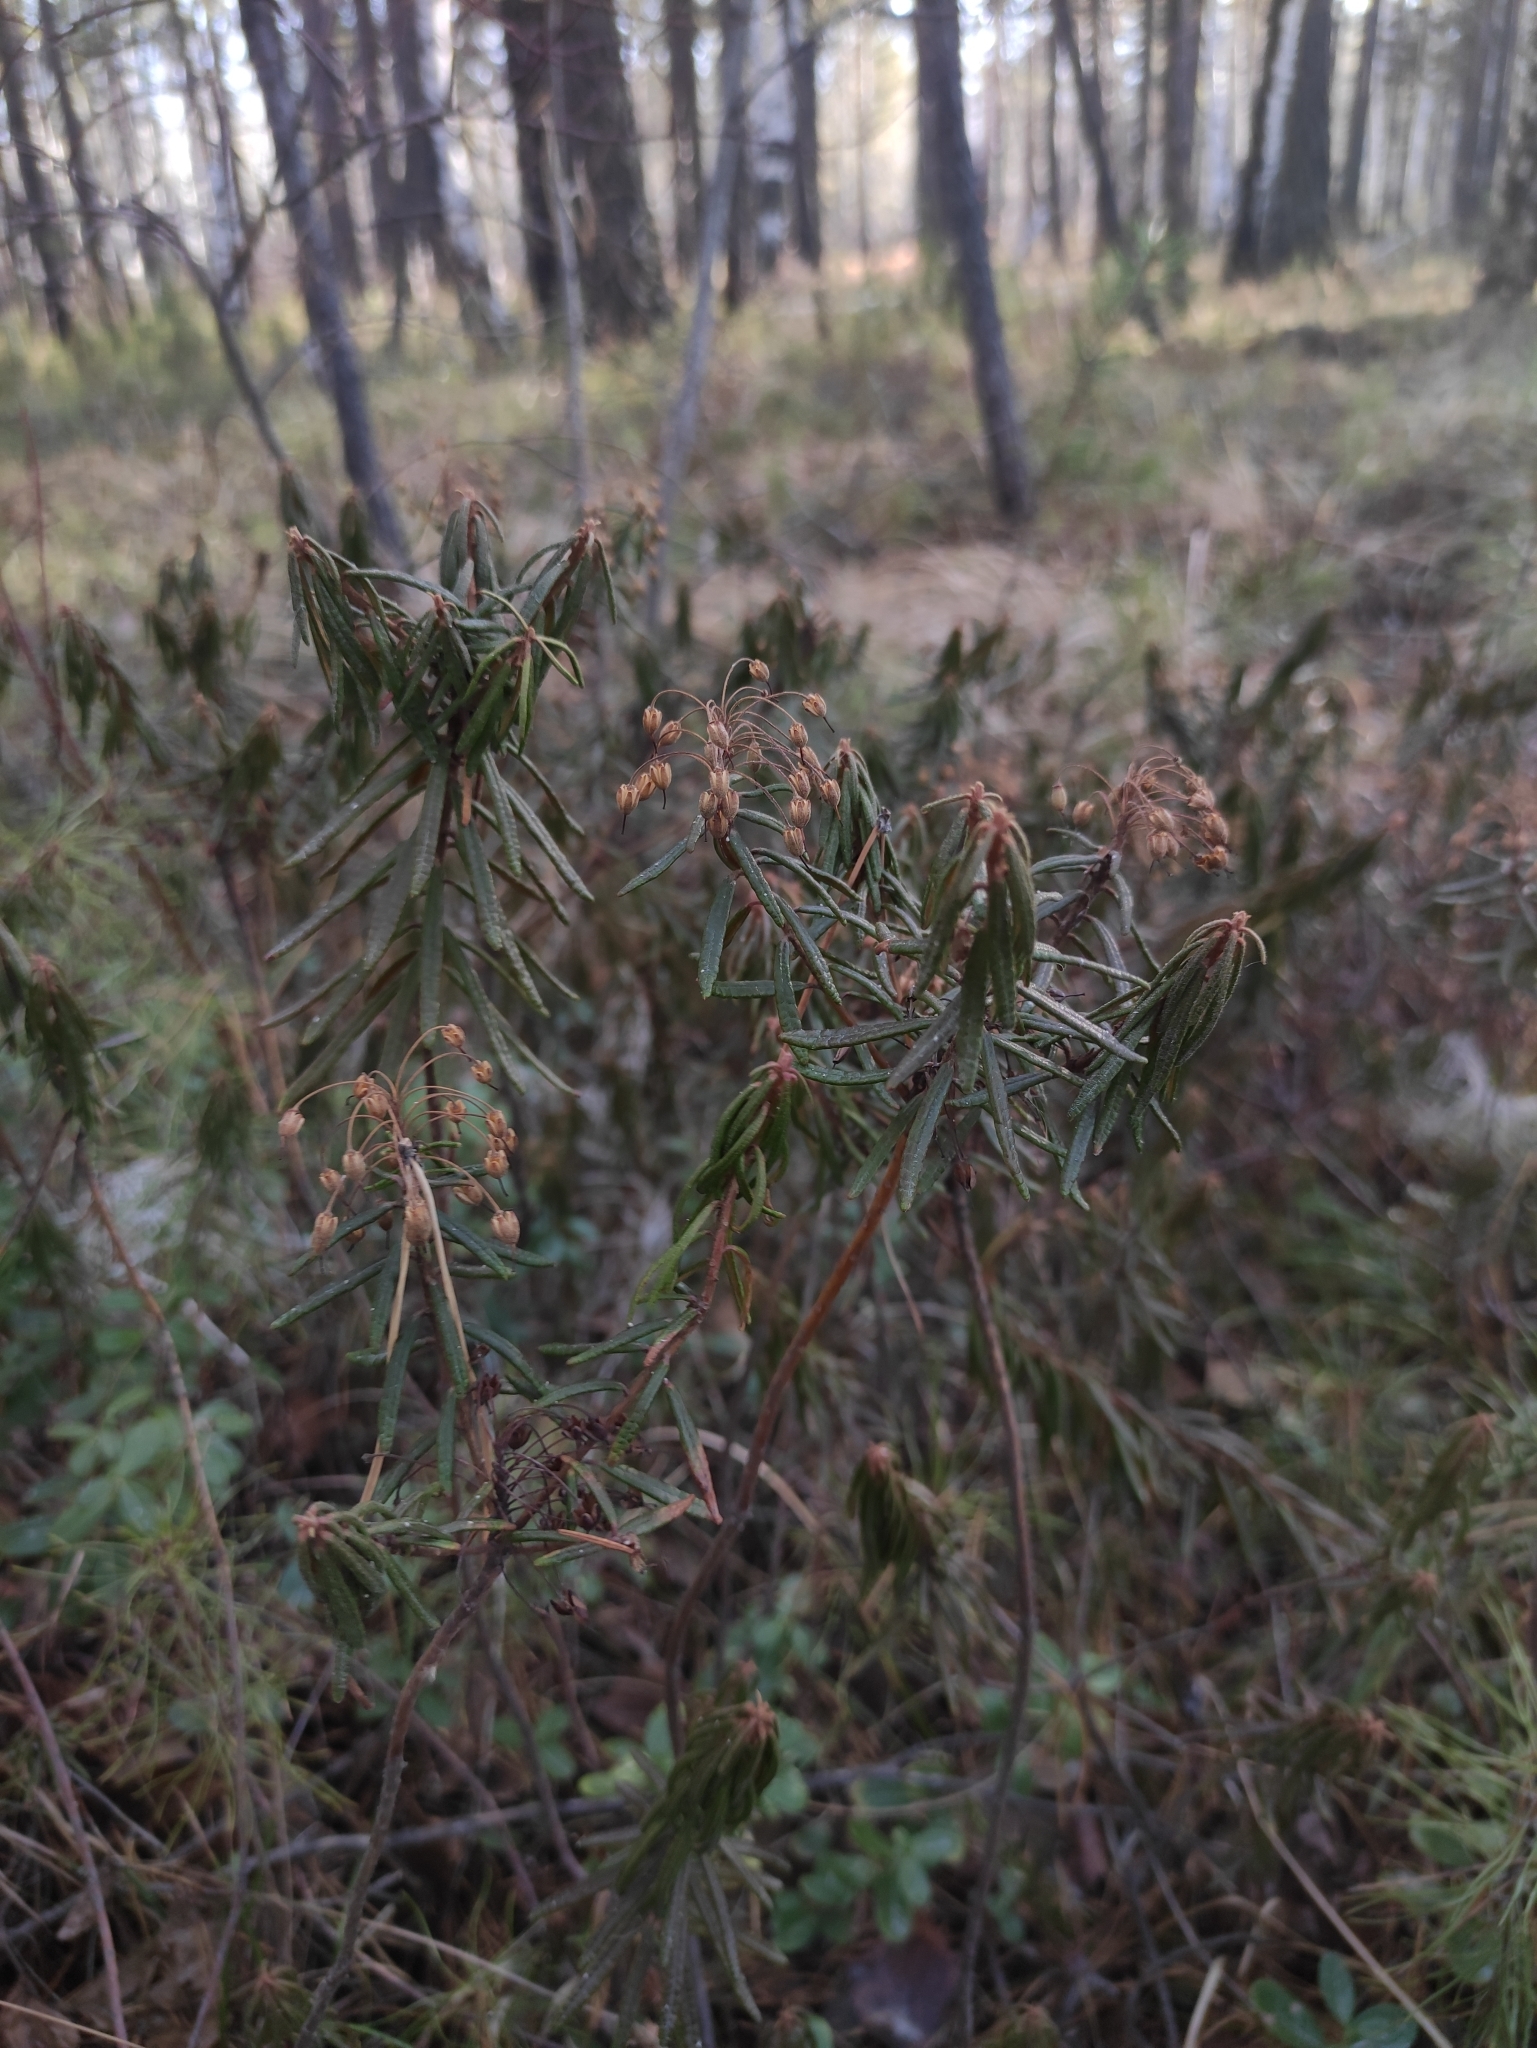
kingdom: Plantae
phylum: Tracheophyta
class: Magnoliopsida
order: Ericales
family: Ericaceae
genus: Rhododendron
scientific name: Rhododendron tomentosum
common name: Marsh labrador tea
